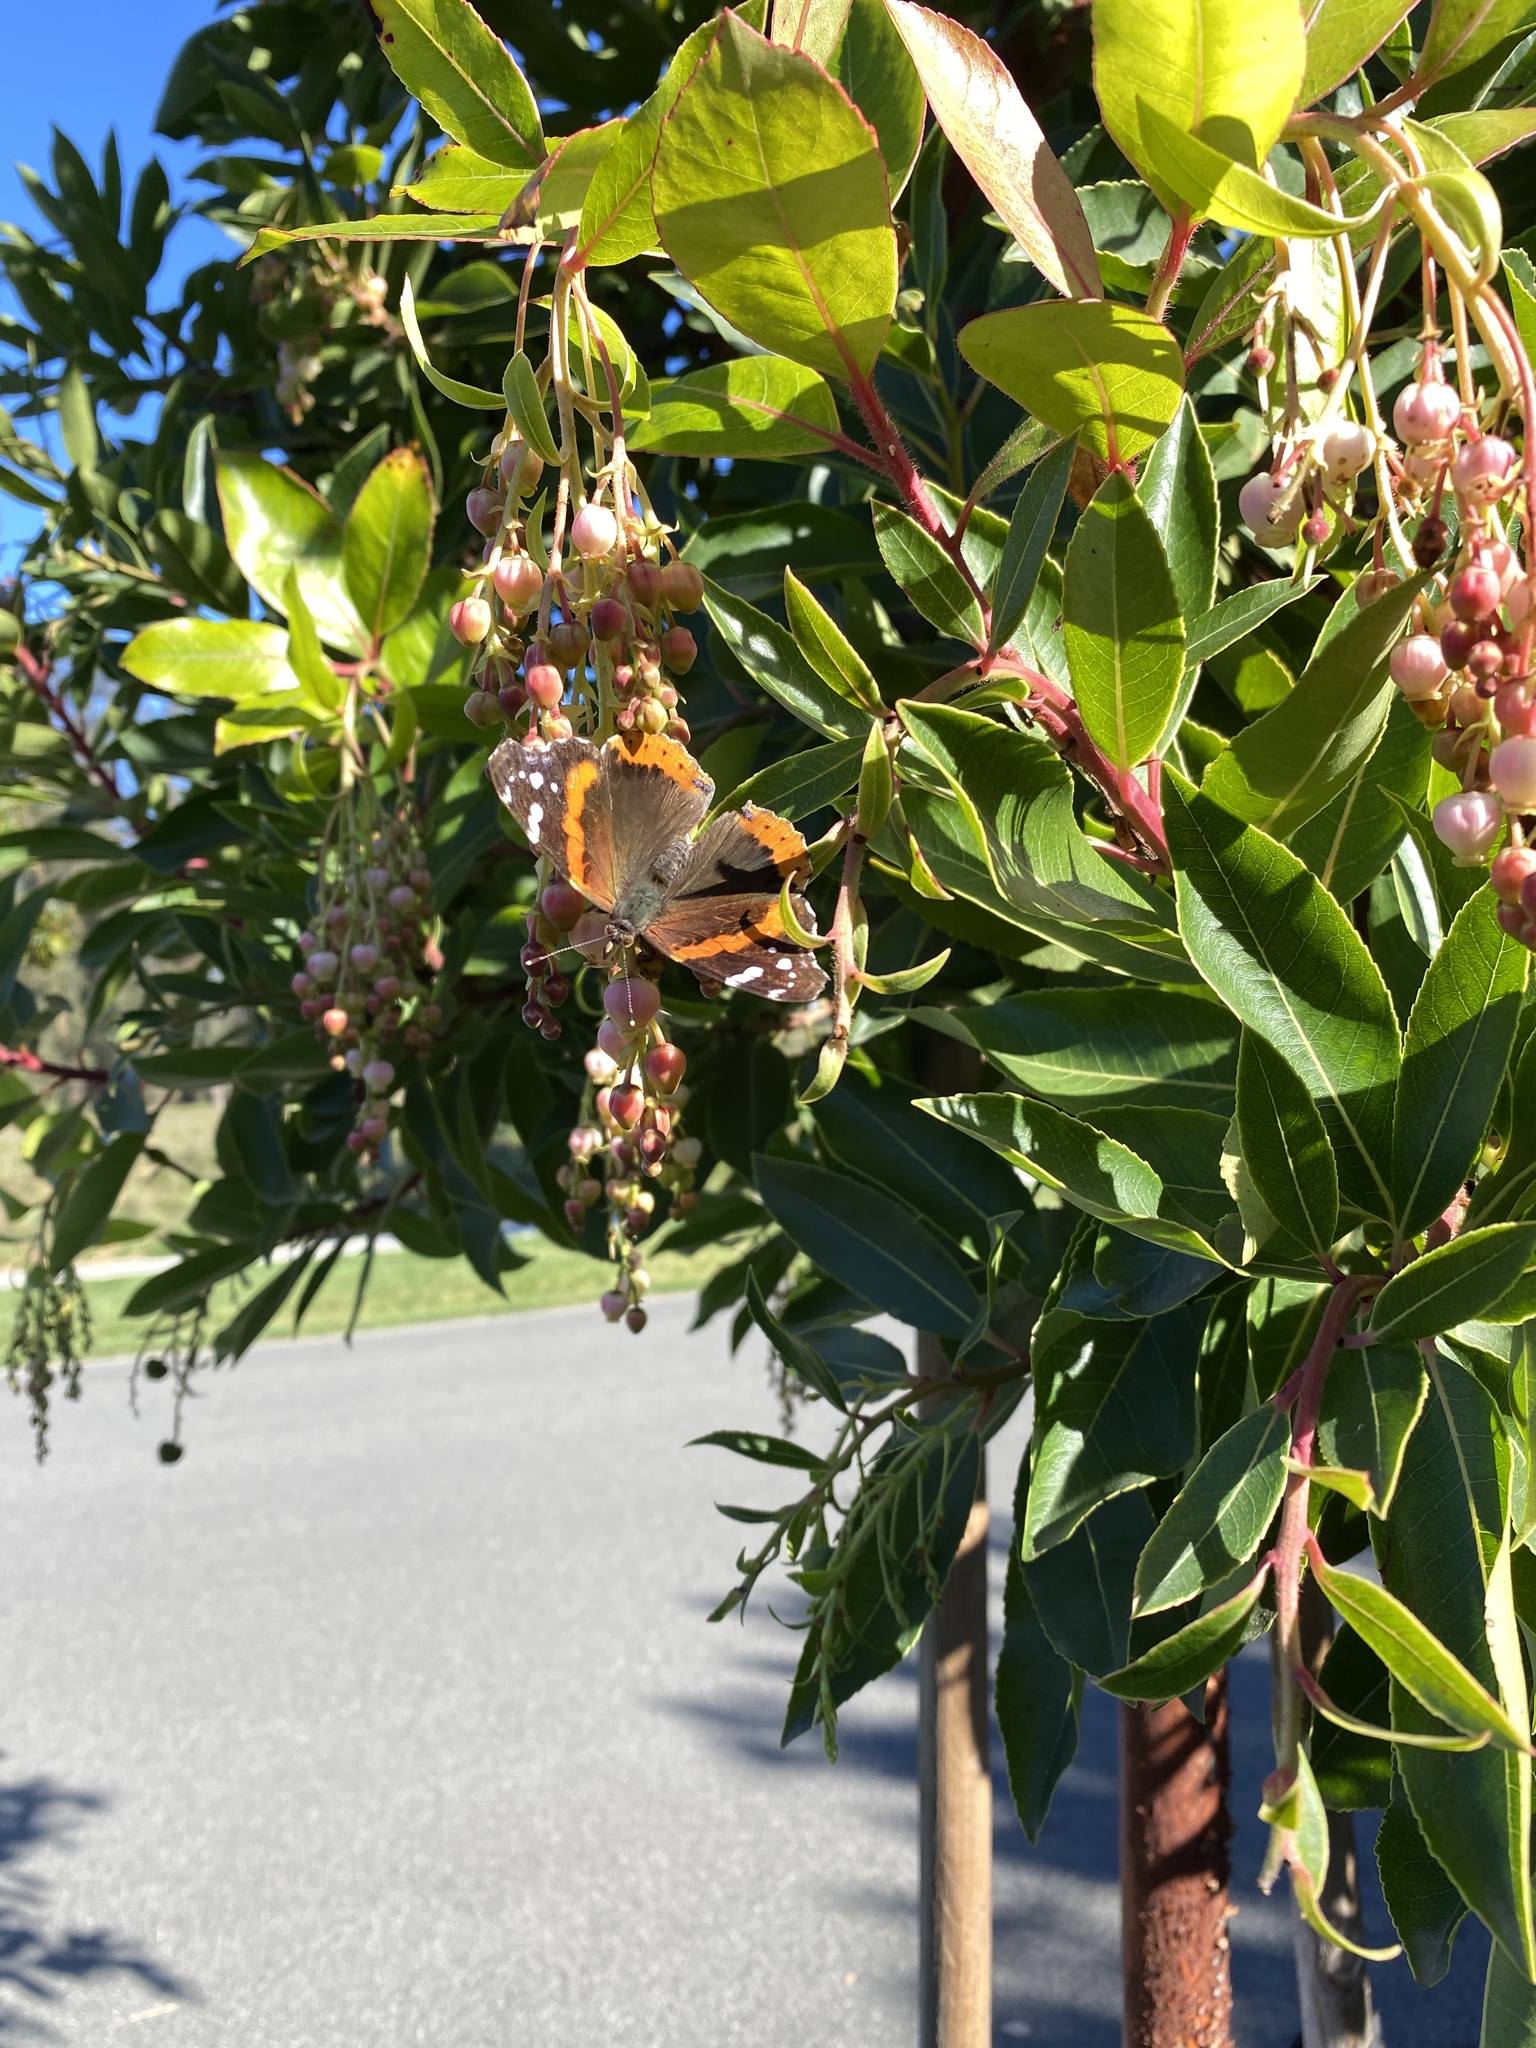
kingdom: Animalia
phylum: Arthropoda
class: Insecta
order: Lepidoptera
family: Nymphalidae
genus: Vanessa
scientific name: Vanessa atalanta
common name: Red admiral
